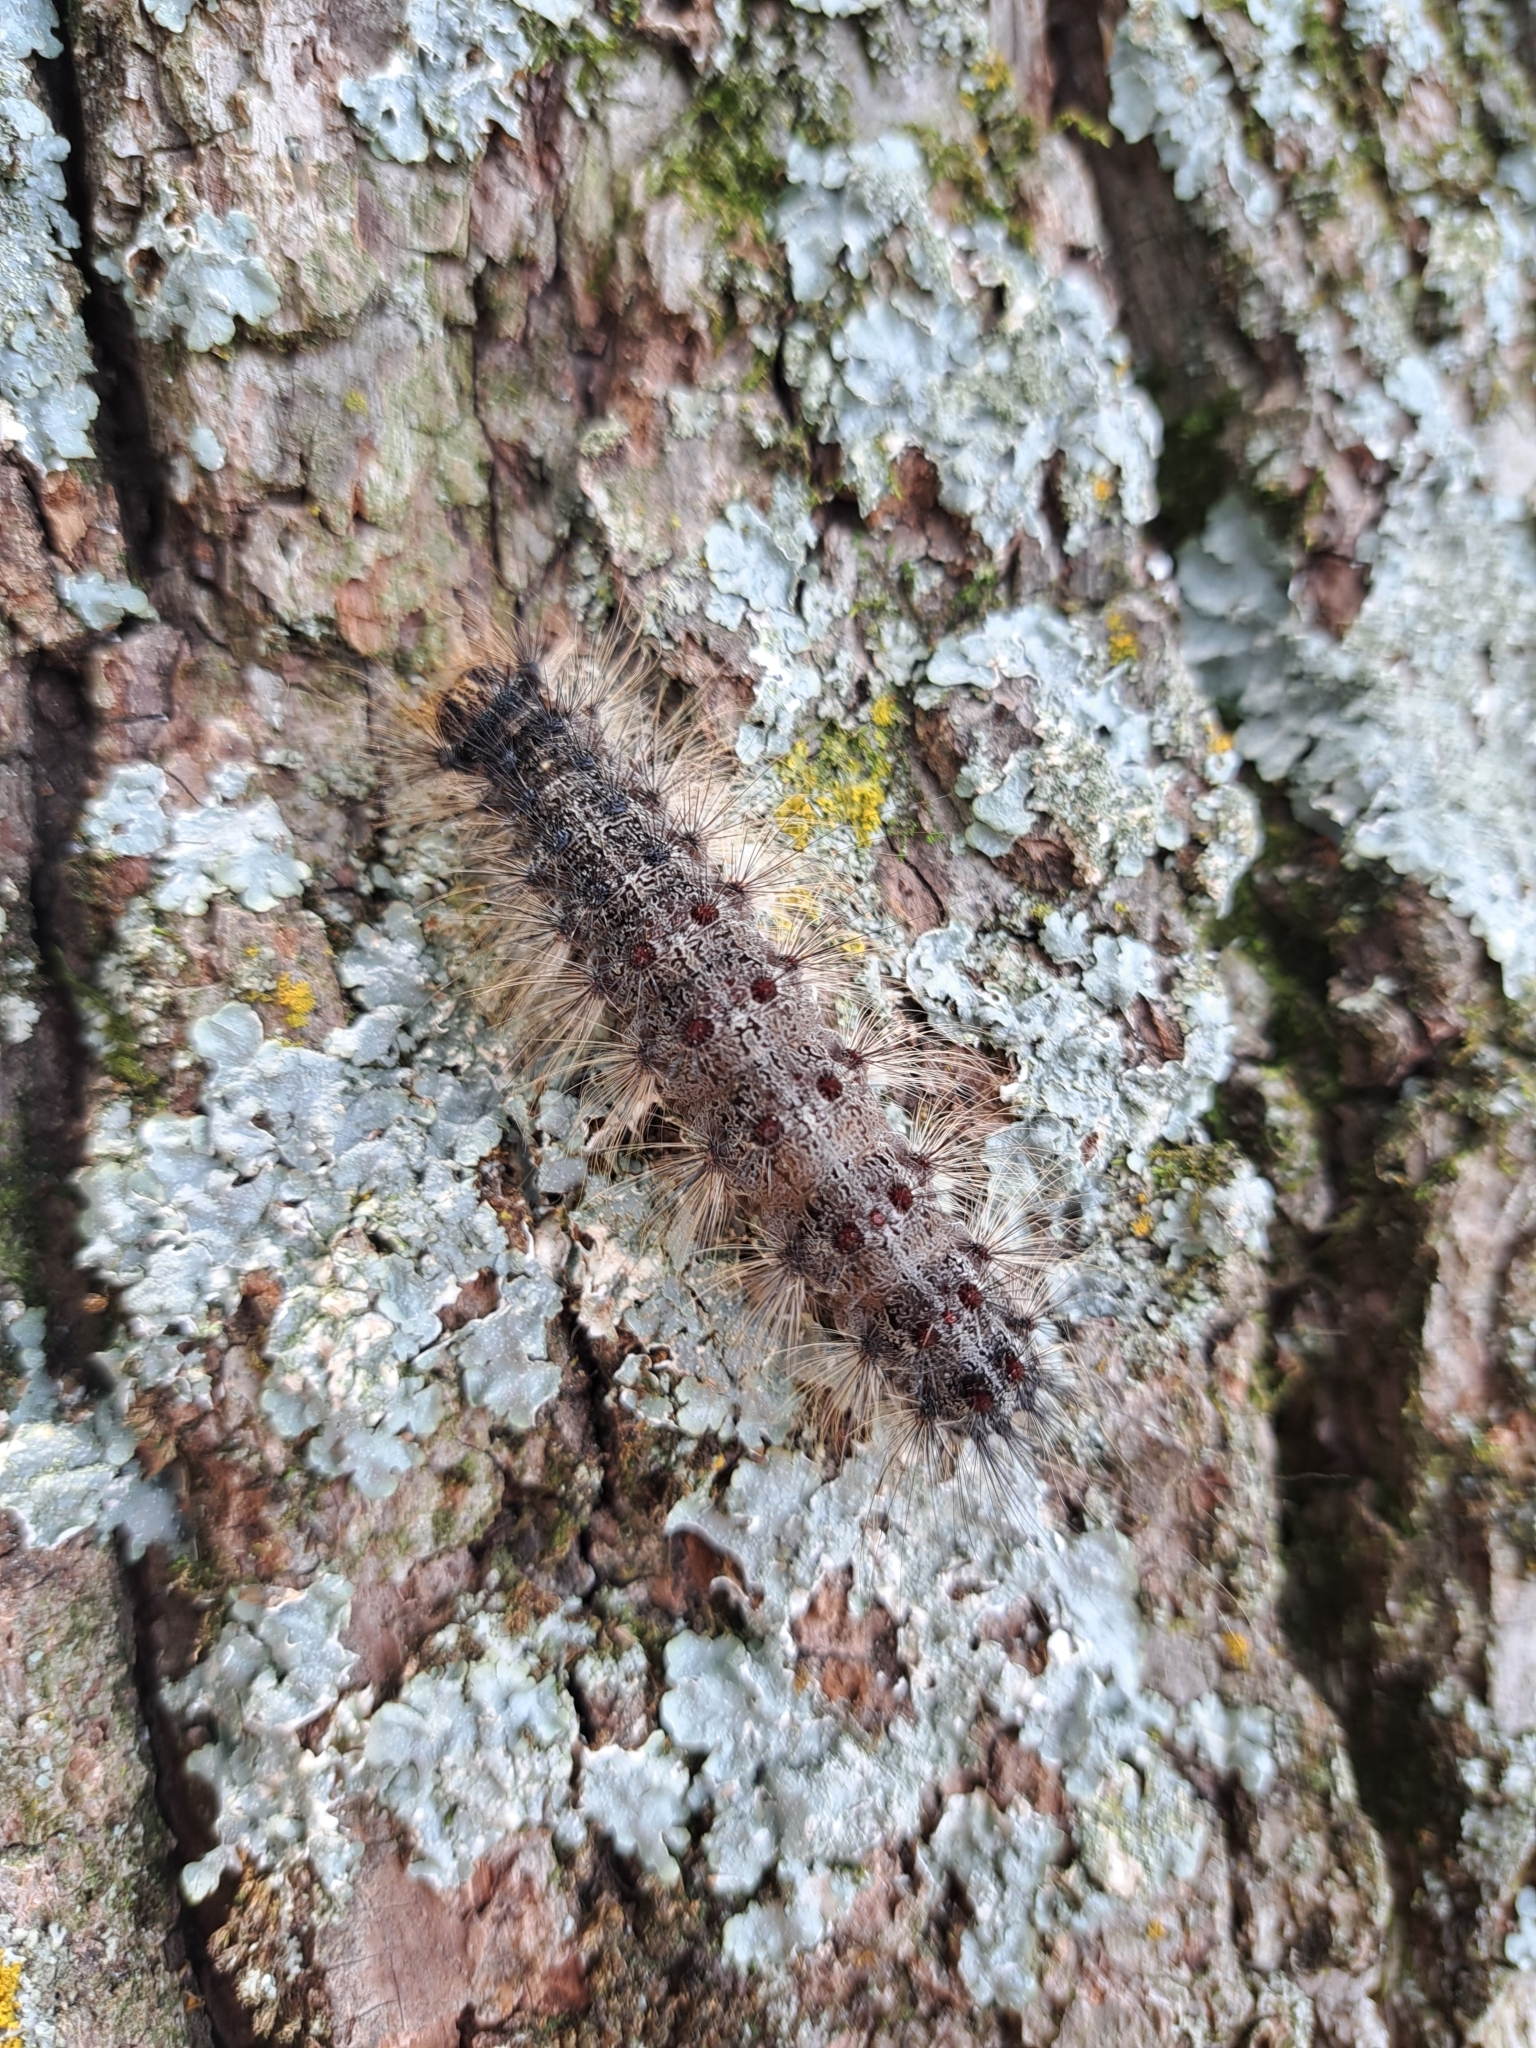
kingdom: Animalia
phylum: Arthropoda
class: Insecta
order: Lepidoptera
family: Erebidae
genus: Lymantria
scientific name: Lymantria dispar
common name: Gypsy moth
